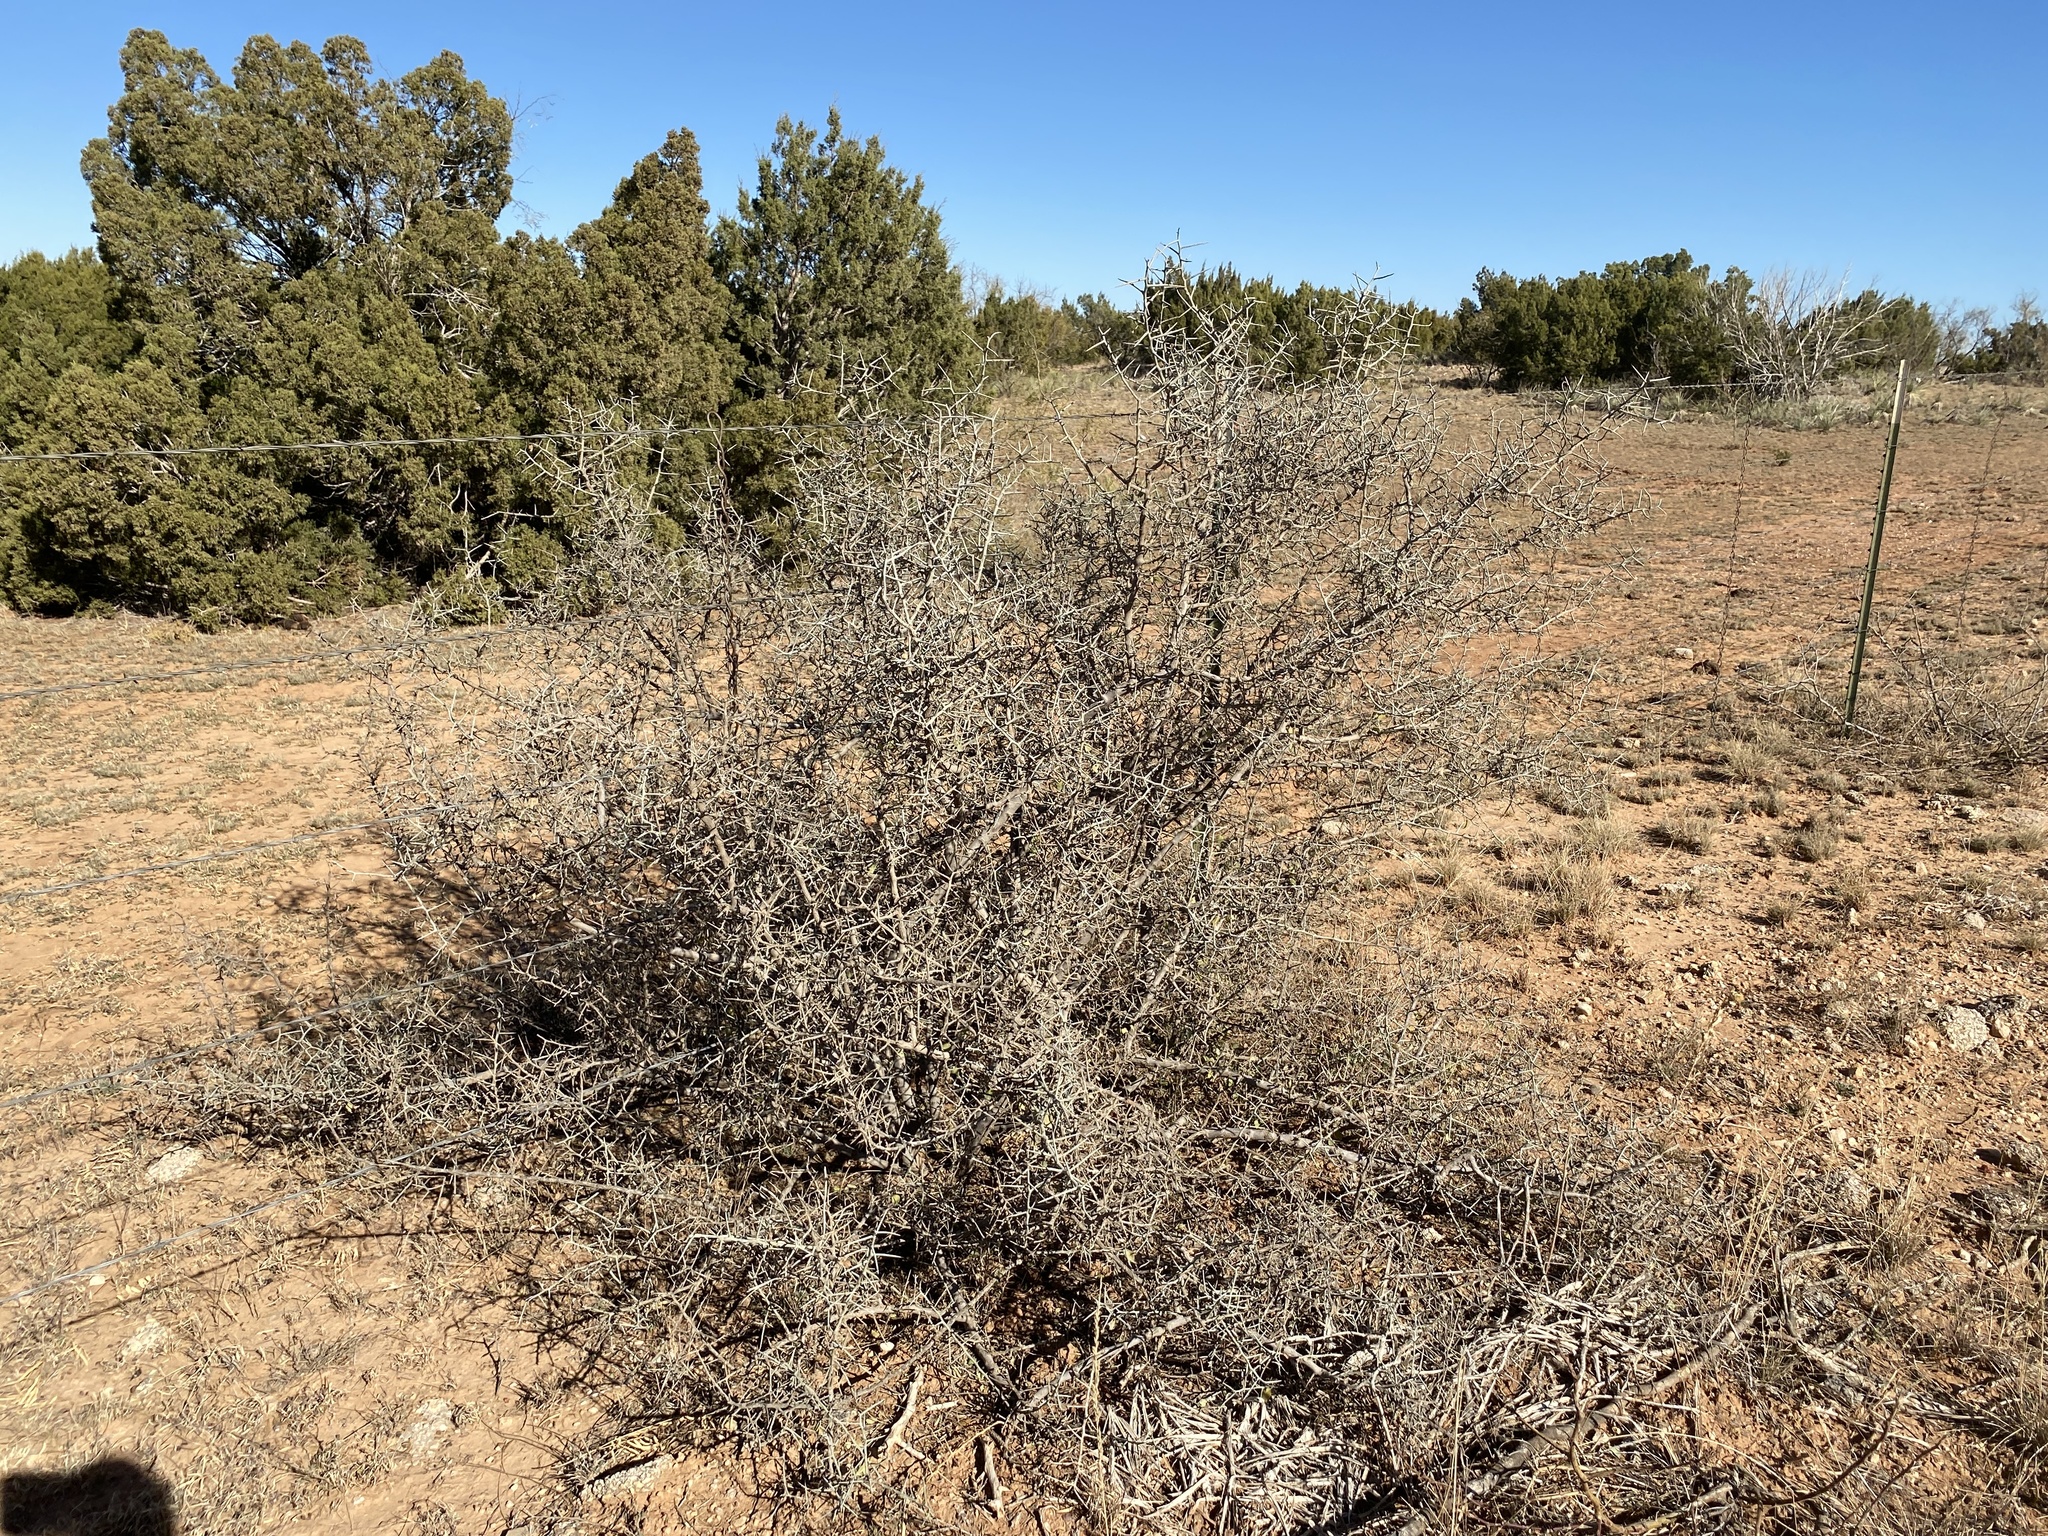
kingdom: Plantae
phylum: Tracheophyta
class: Magnoliopsida
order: Rosales
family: Rhamnaceae
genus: Sarcomphalus
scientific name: Sarcomphalus obtusifolius
